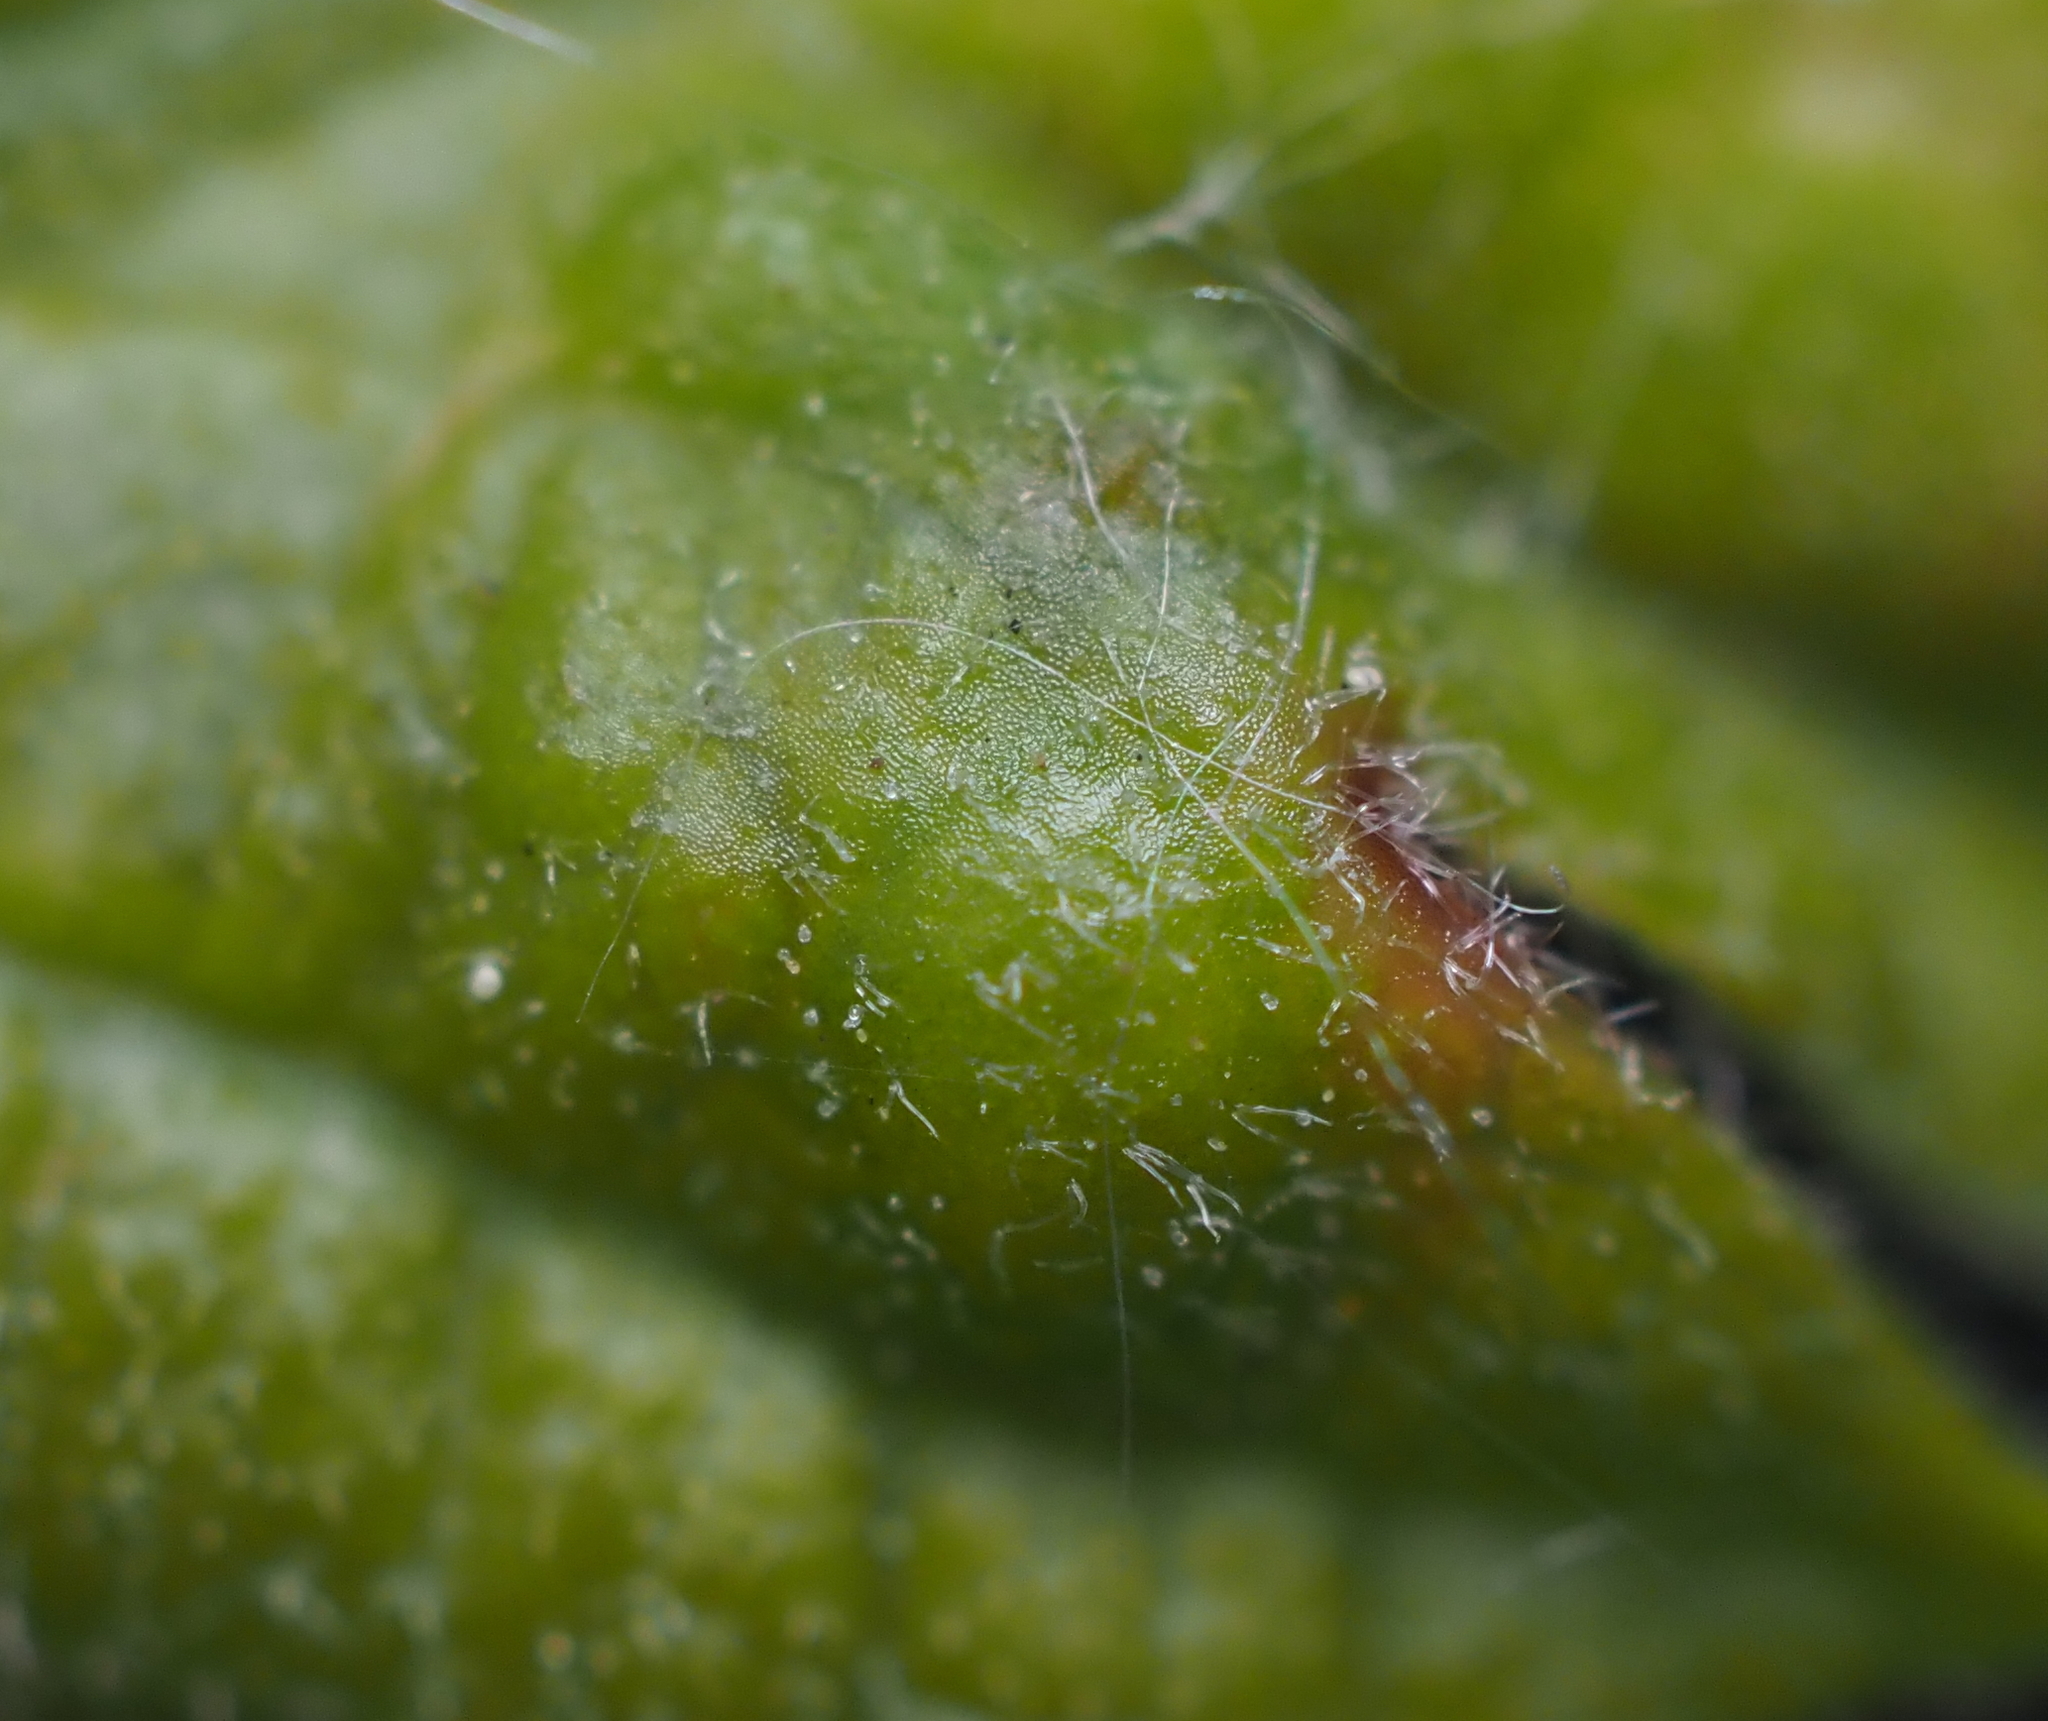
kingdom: Animalia
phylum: Arthropoda
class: Insecta
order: Hymenoptera
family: Cynipidae
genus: Neuroterus
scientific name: Neuroterus
